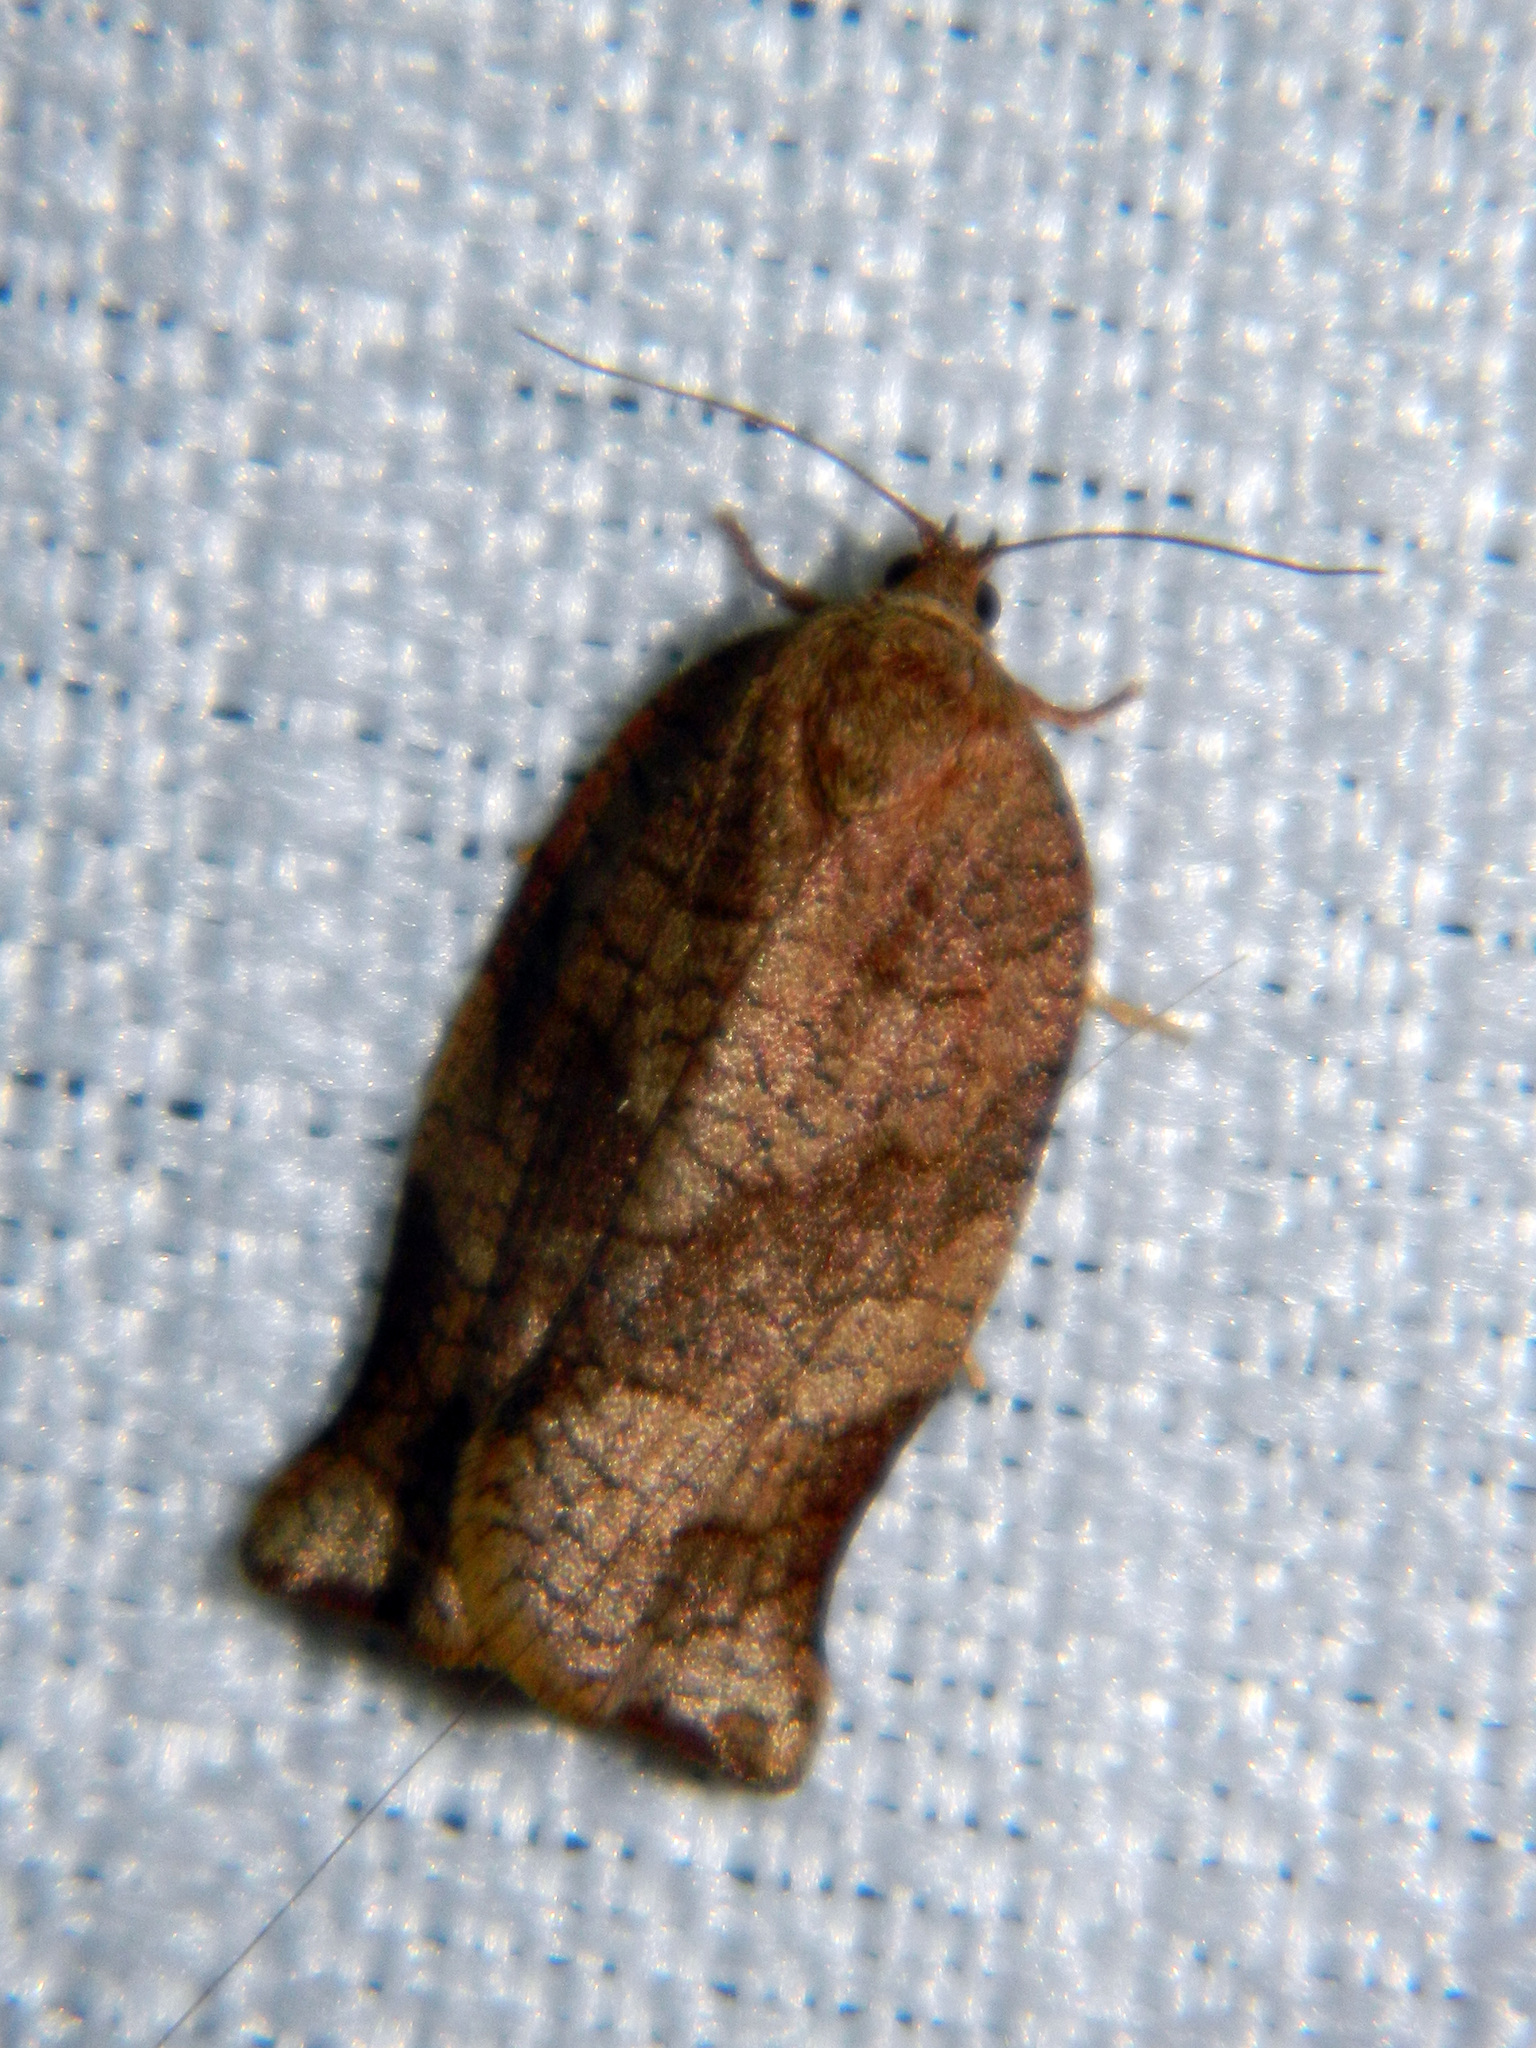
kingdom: Animalia
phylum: Arthropoda
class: Insecta
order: Lepidoptera
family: Tortricidae
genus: Choristoneura
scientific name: Choristoneura rosaceana
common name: Oblique-banded leafroller moth
